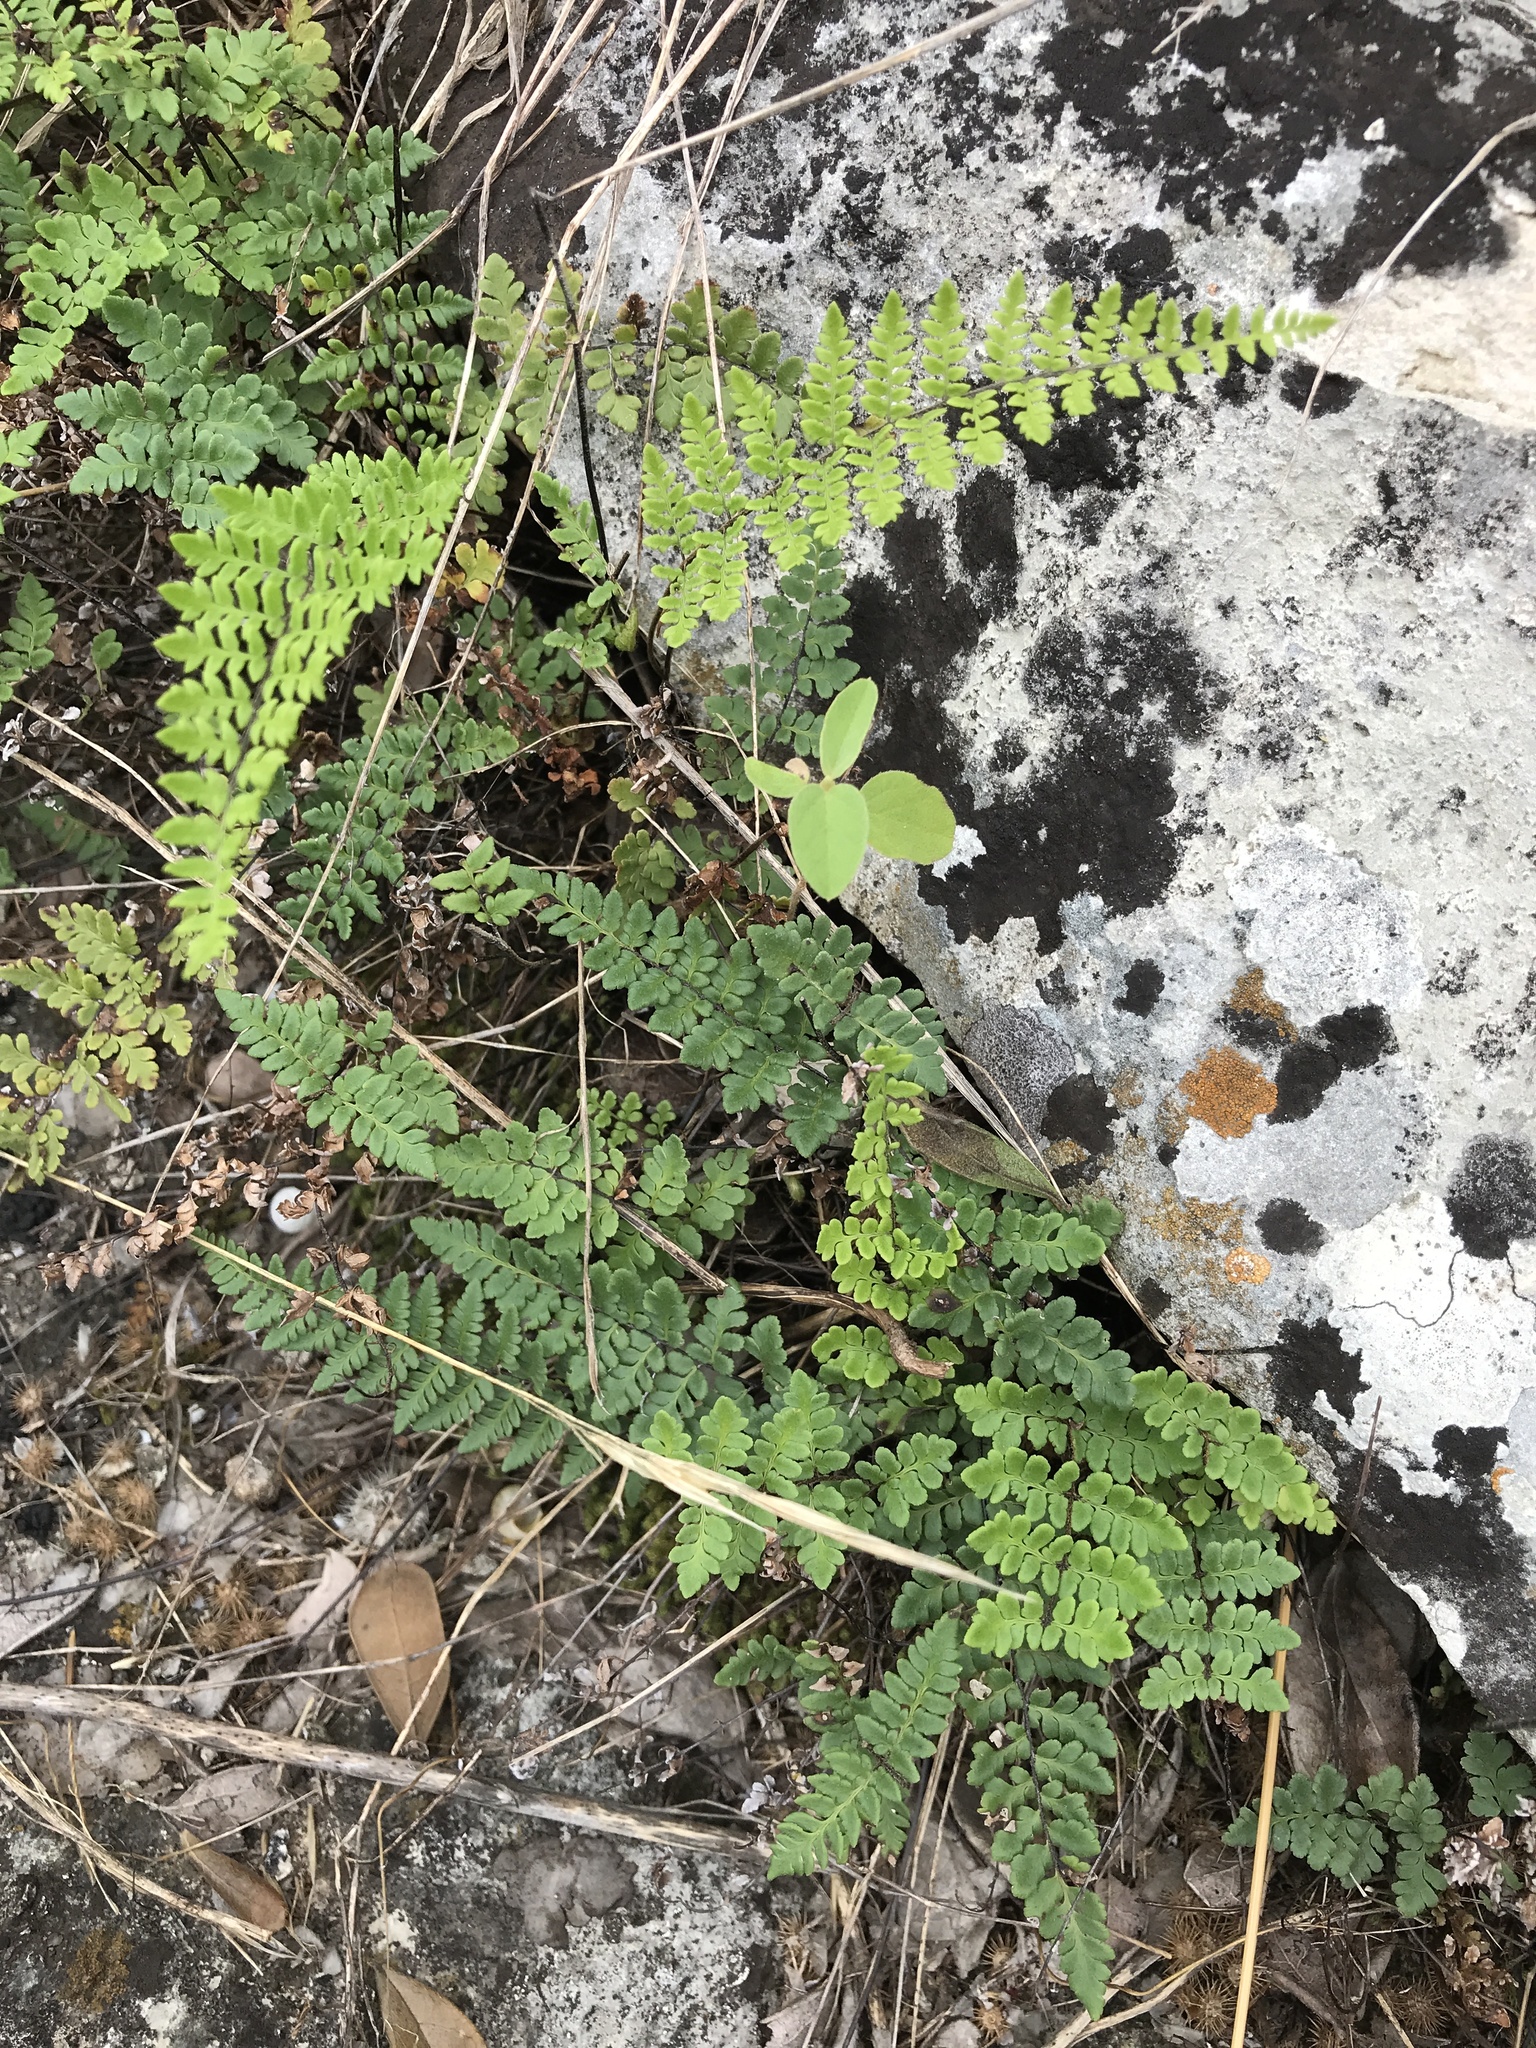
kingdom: Plantae
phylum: Tracheophyta
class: Polypodiopsida
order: Polypodiales
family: Pteridaceae
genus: Myriopteris
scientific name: Myriopteris alabamensis
